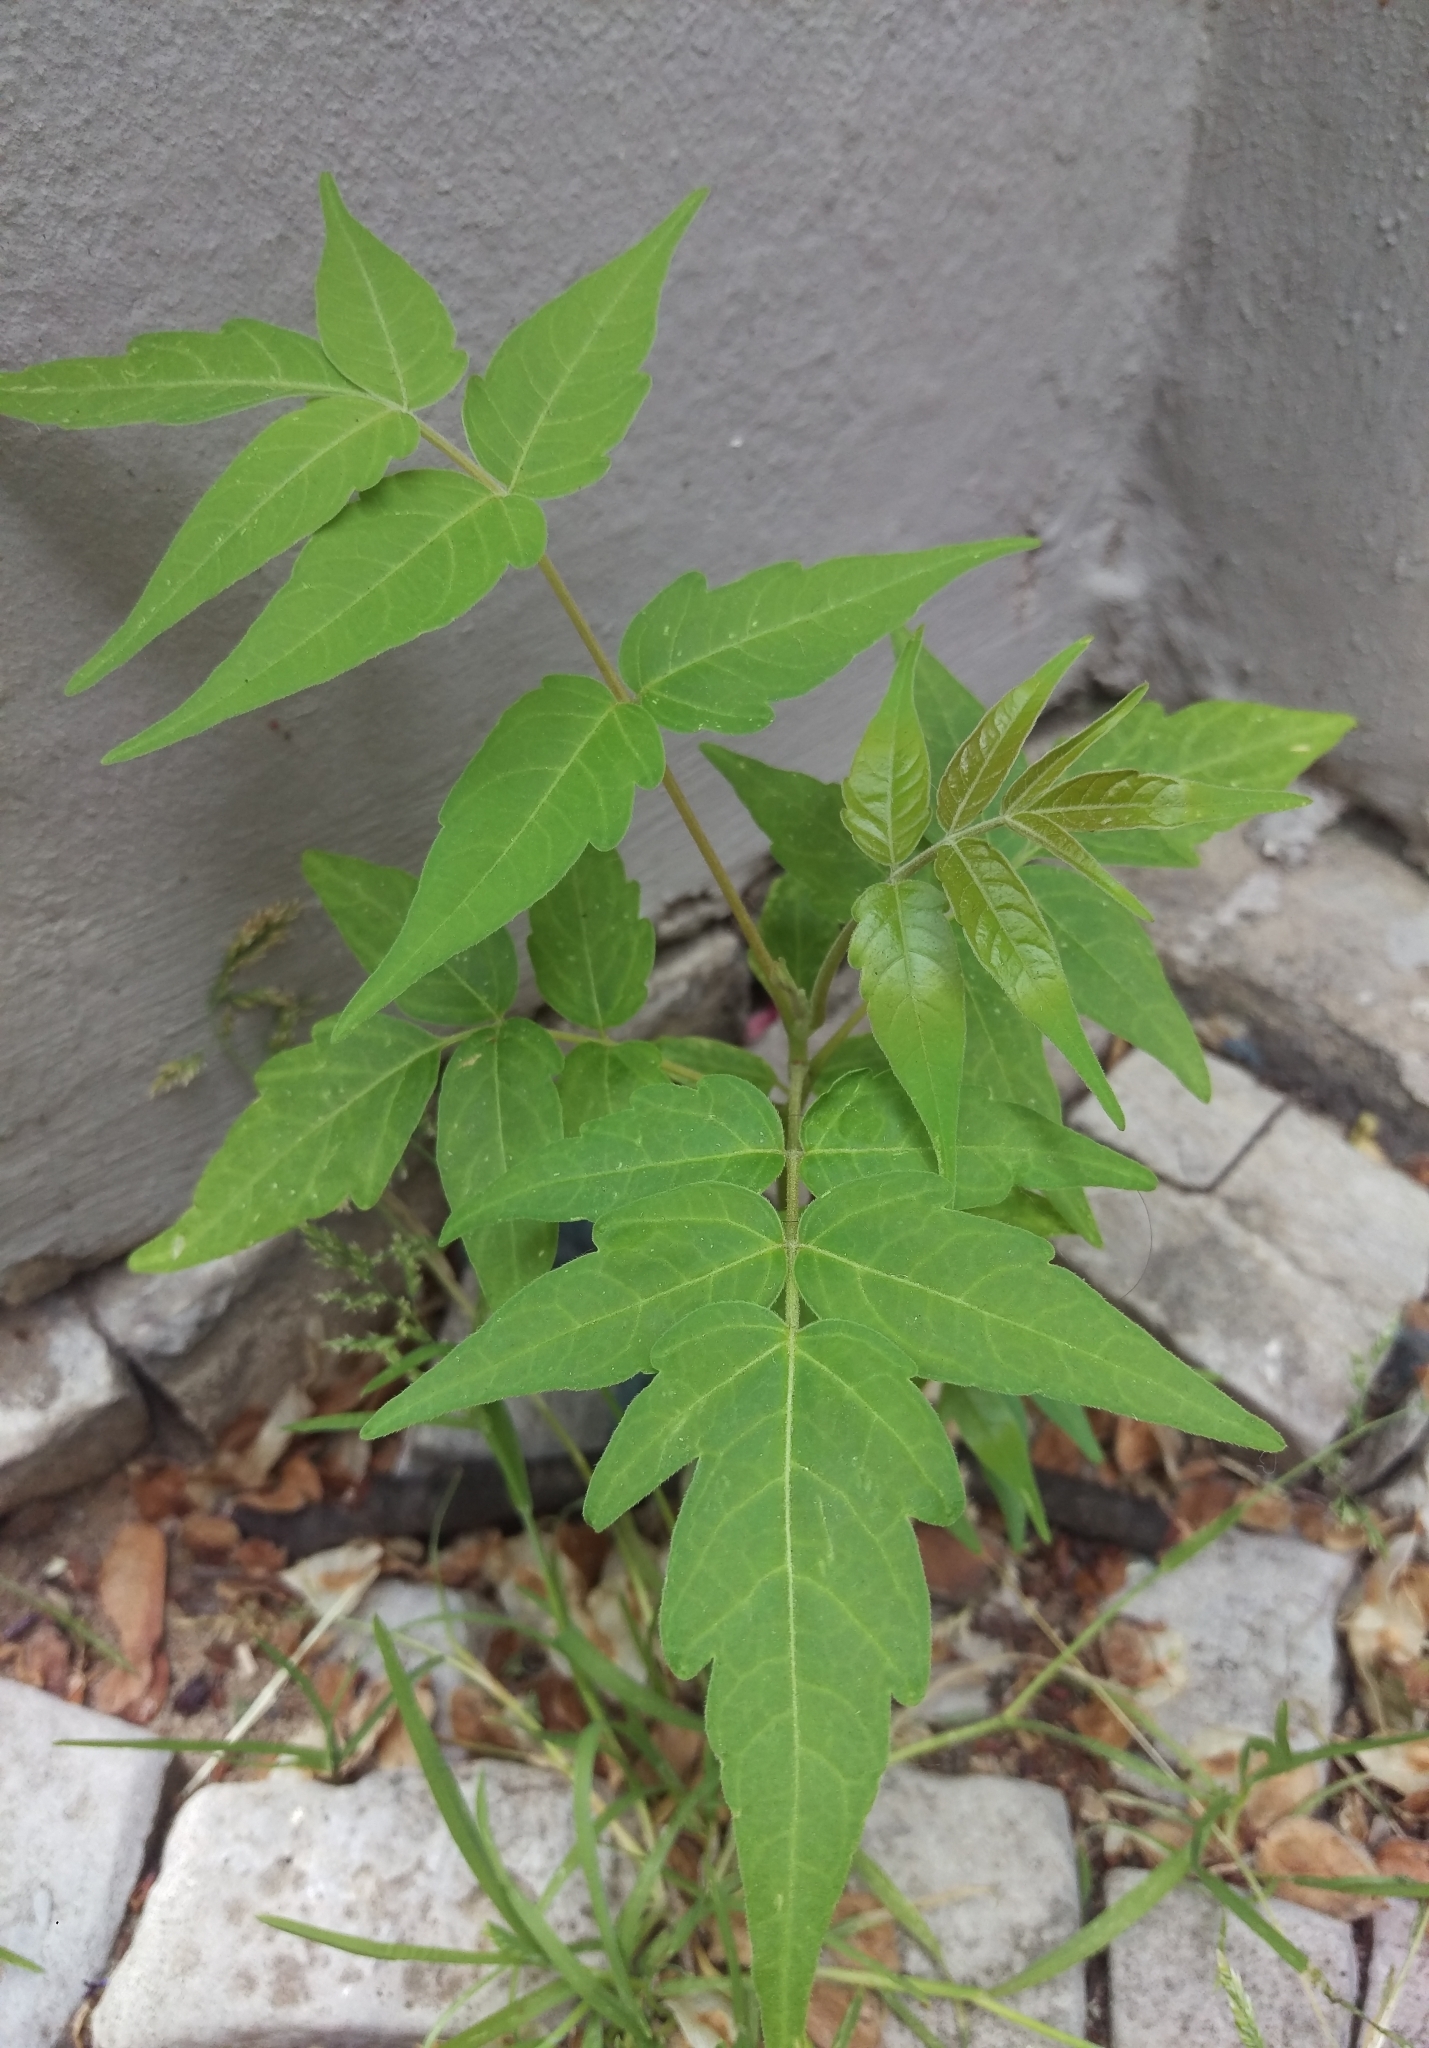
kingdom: Plantae
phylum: Tracheophyta
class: Magnoliopsida
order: Sapindales
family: Simaroubaceae
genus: Ailanthus
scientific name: Ailanthus altissima
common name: Tree-of-heaven
